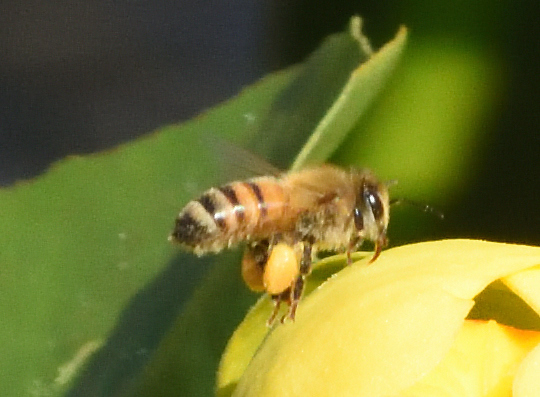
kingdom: Animalia
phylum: Arthropoda
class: Insecta
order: Hymenoptera
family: Apidae
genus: Apis
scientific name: Apis mellifera
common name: Honey bee
